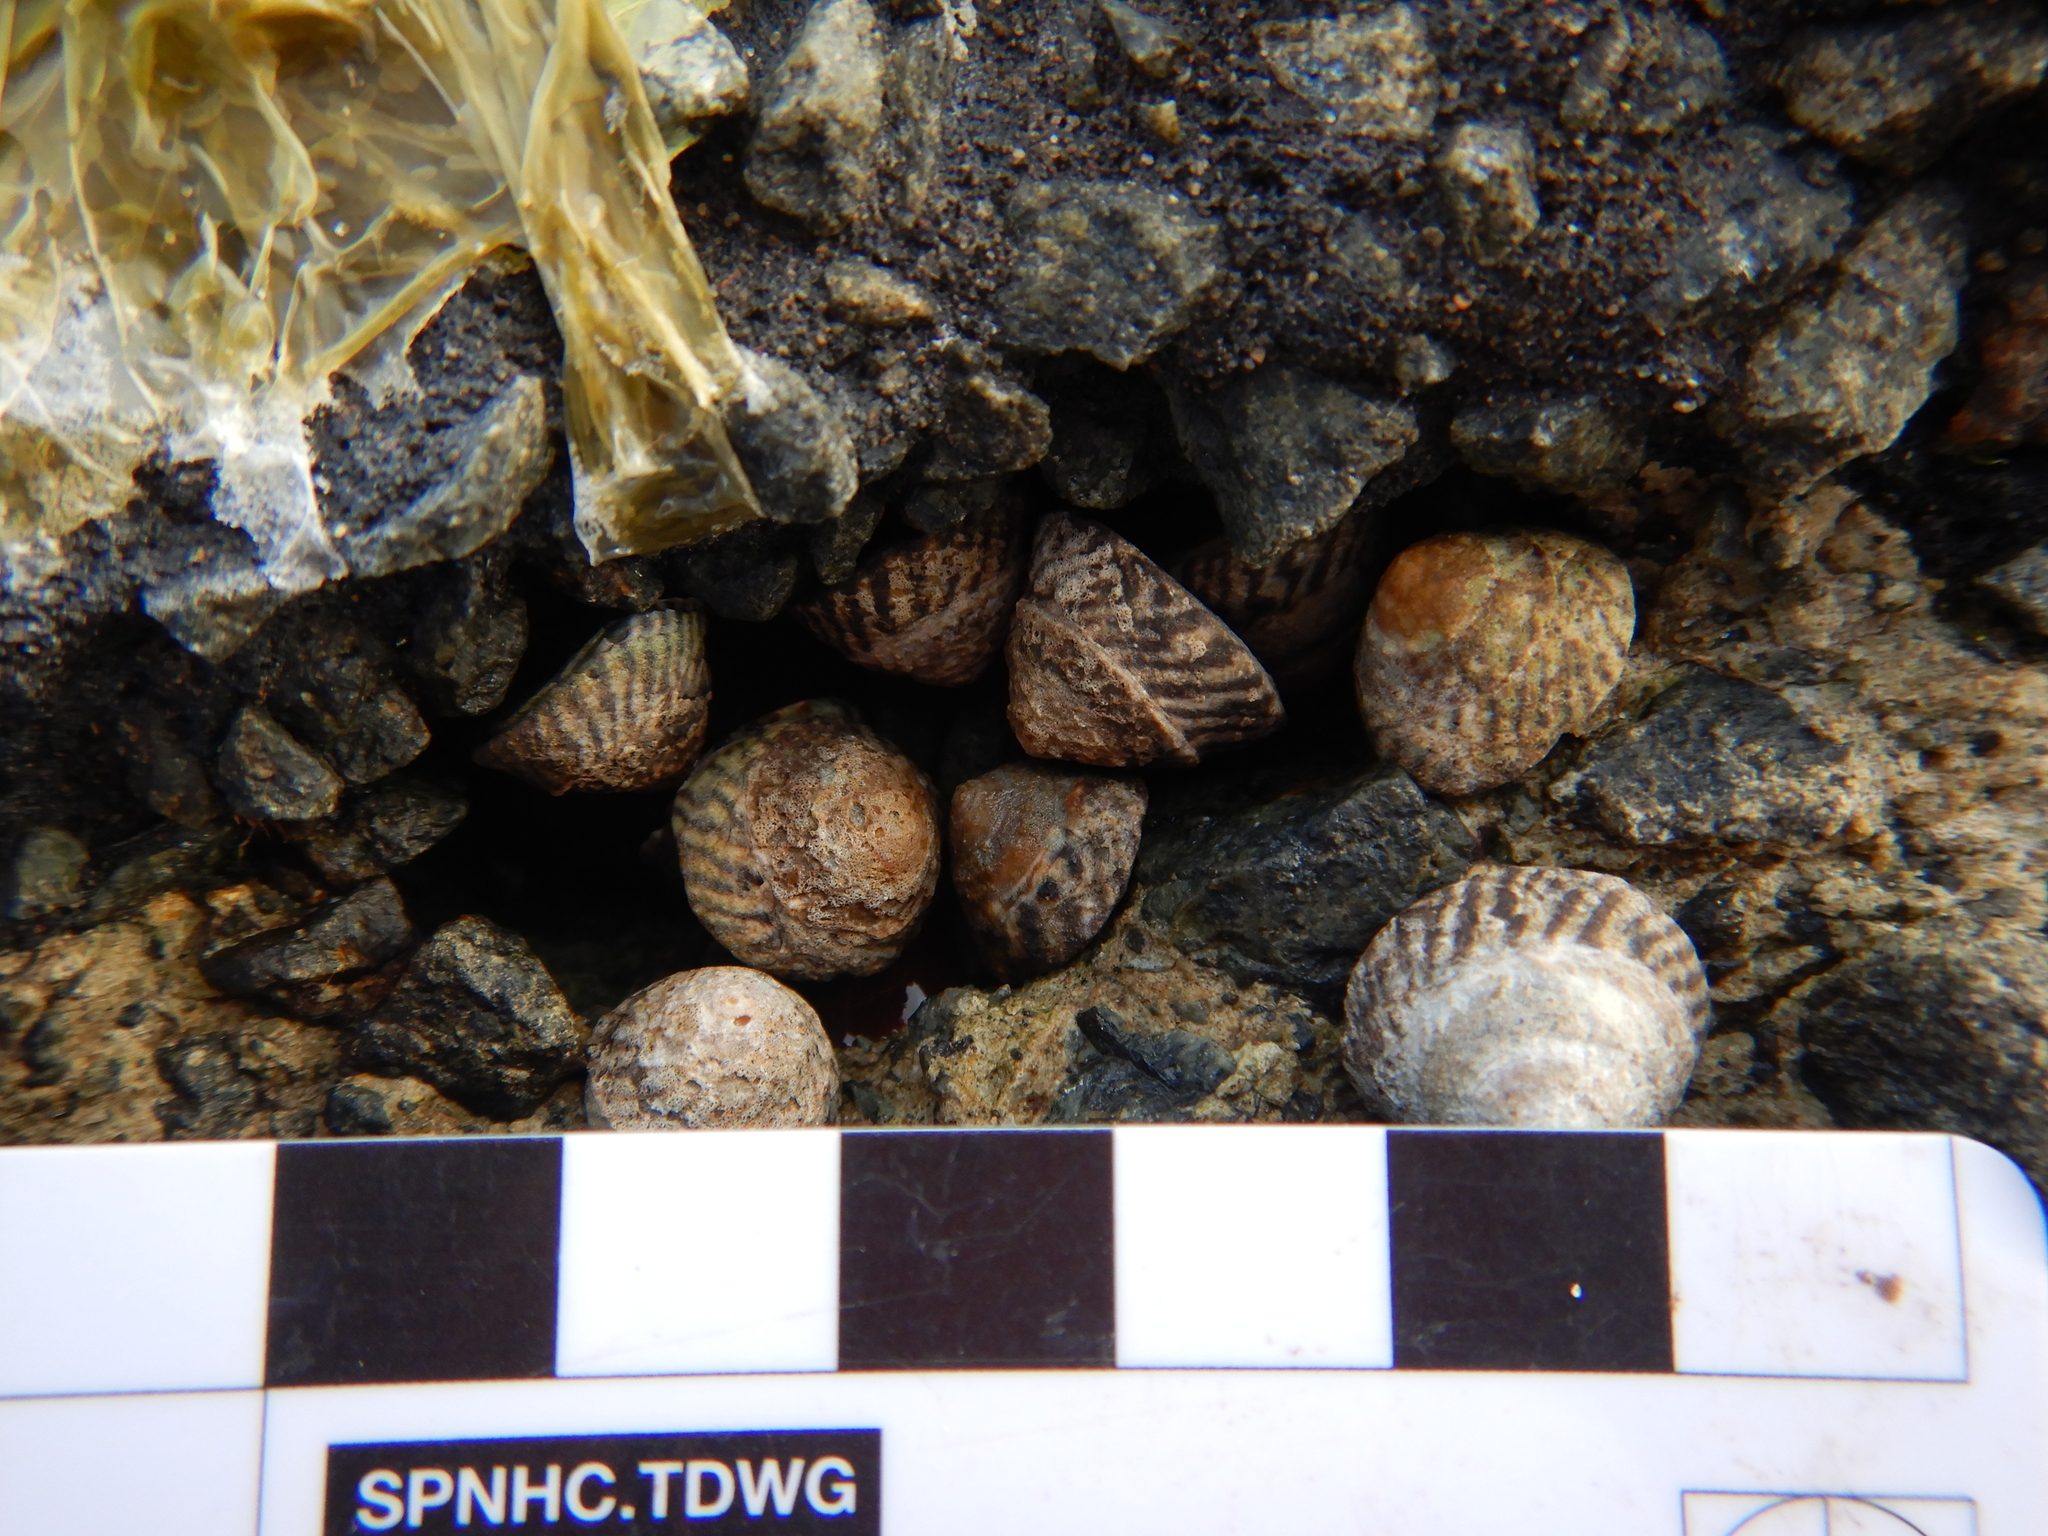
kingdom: Animalia
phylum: Mollusca
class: Gastropoda
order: Littorinimorpha
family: Littorinidae
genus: Bembicium
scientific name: Bembicium nanum
